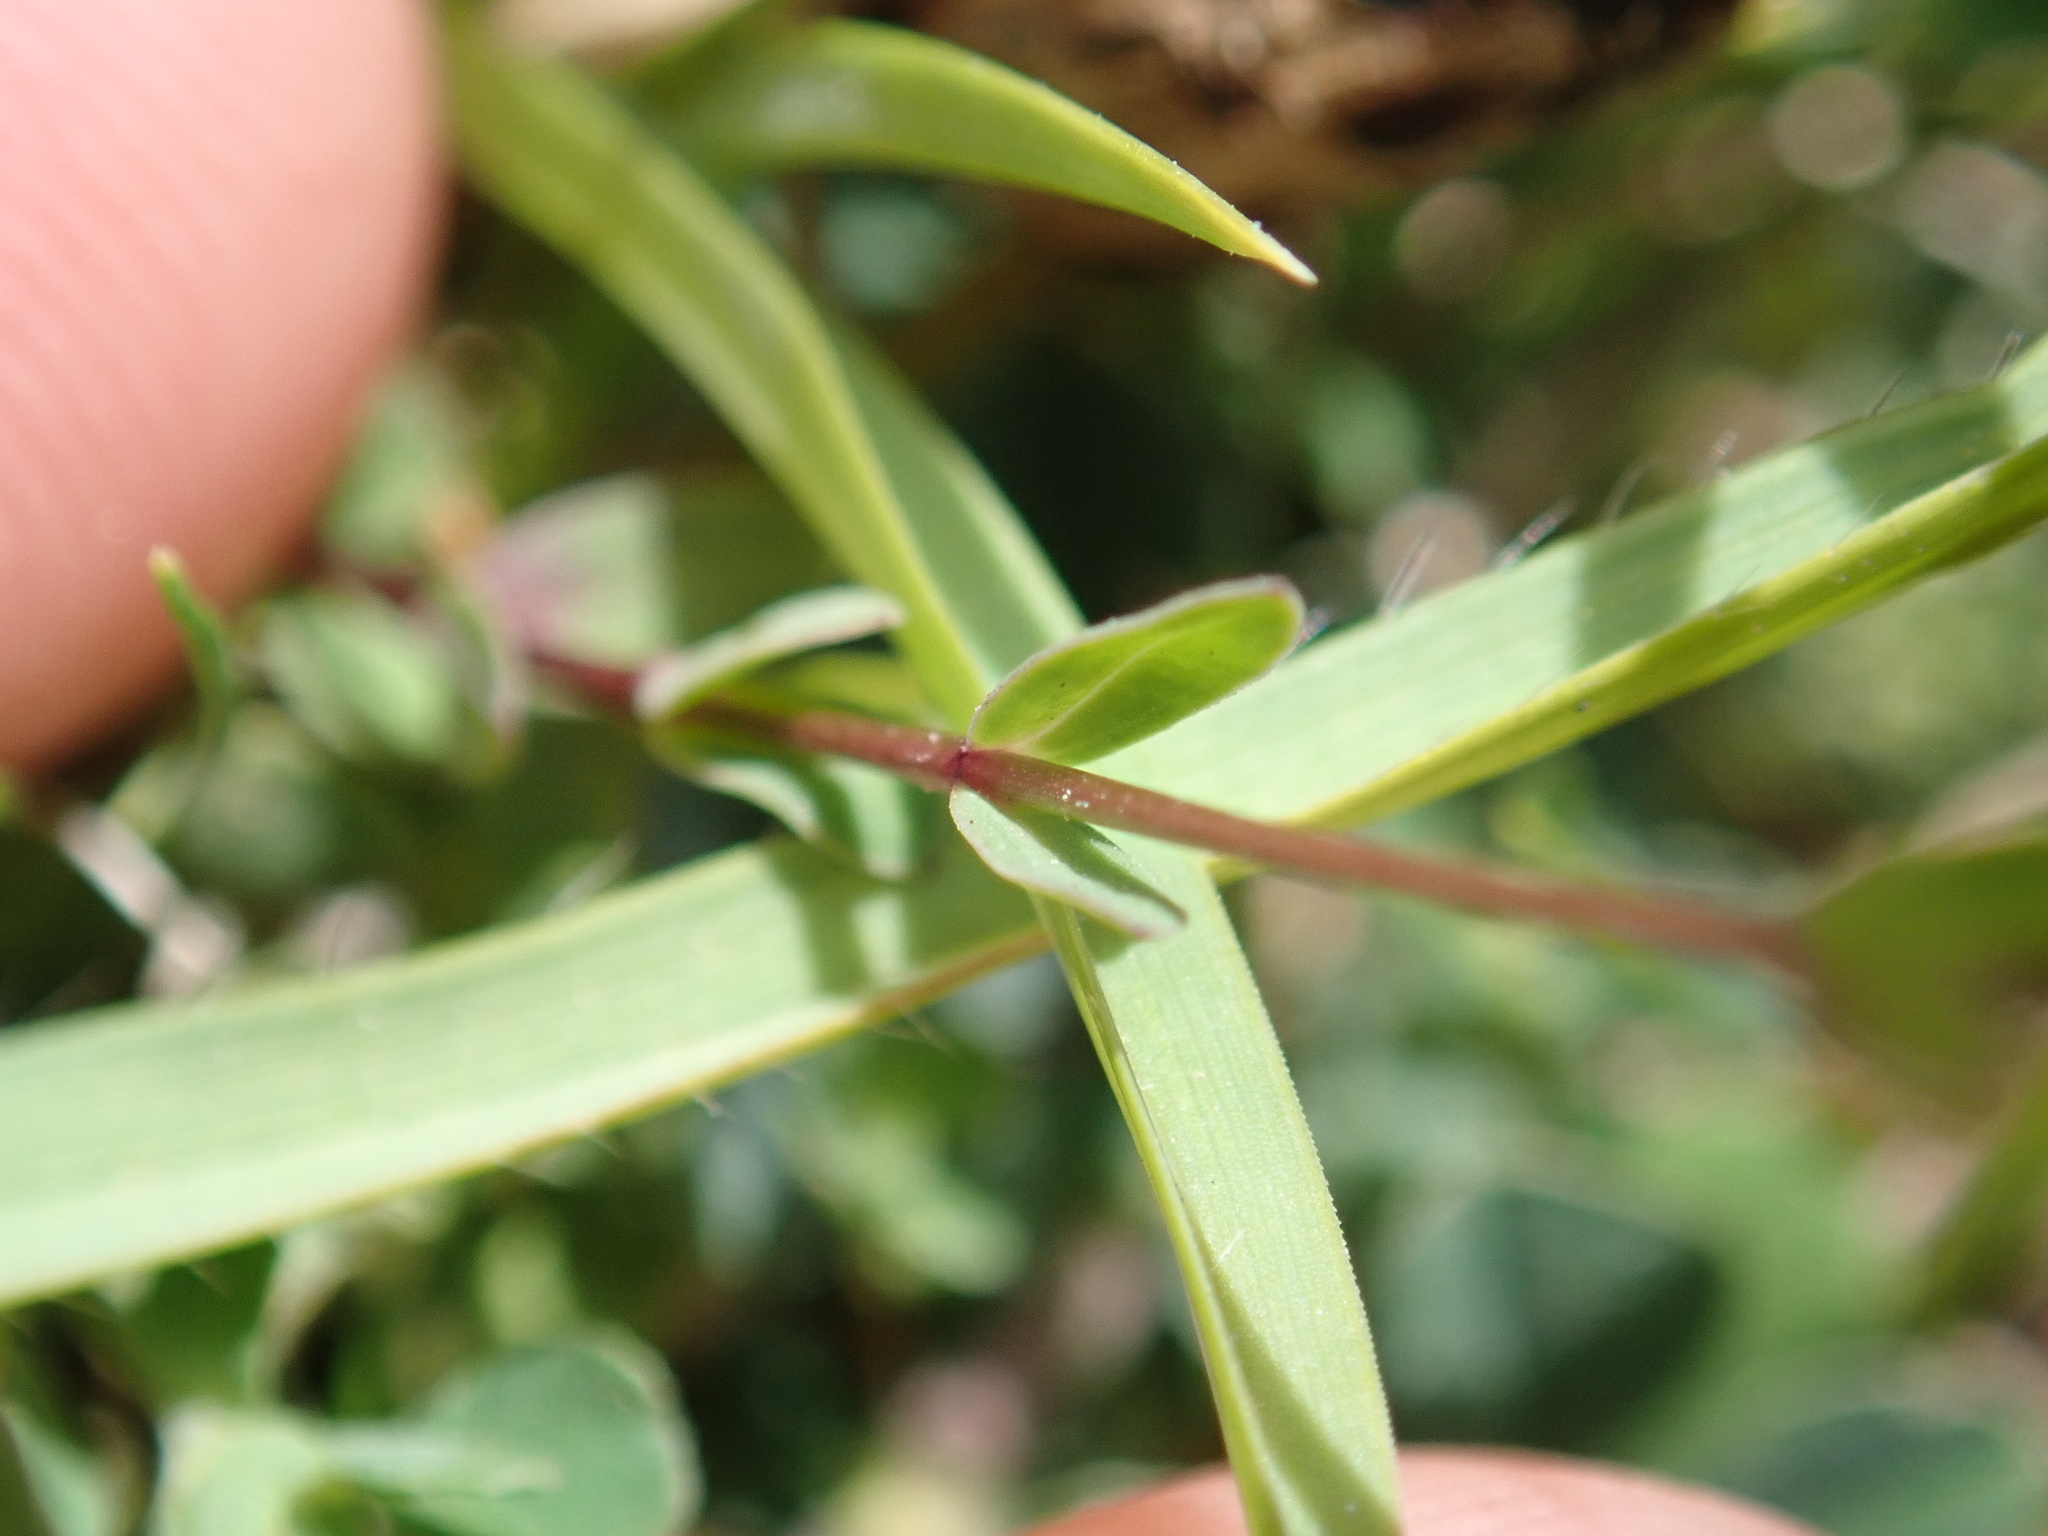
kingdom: Plantae
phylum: Tracheophyta
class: Magnoliopsida
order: Malpighiales
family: Linaceae
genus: Linum
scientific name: Linum catharticum
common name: Fairy flax
